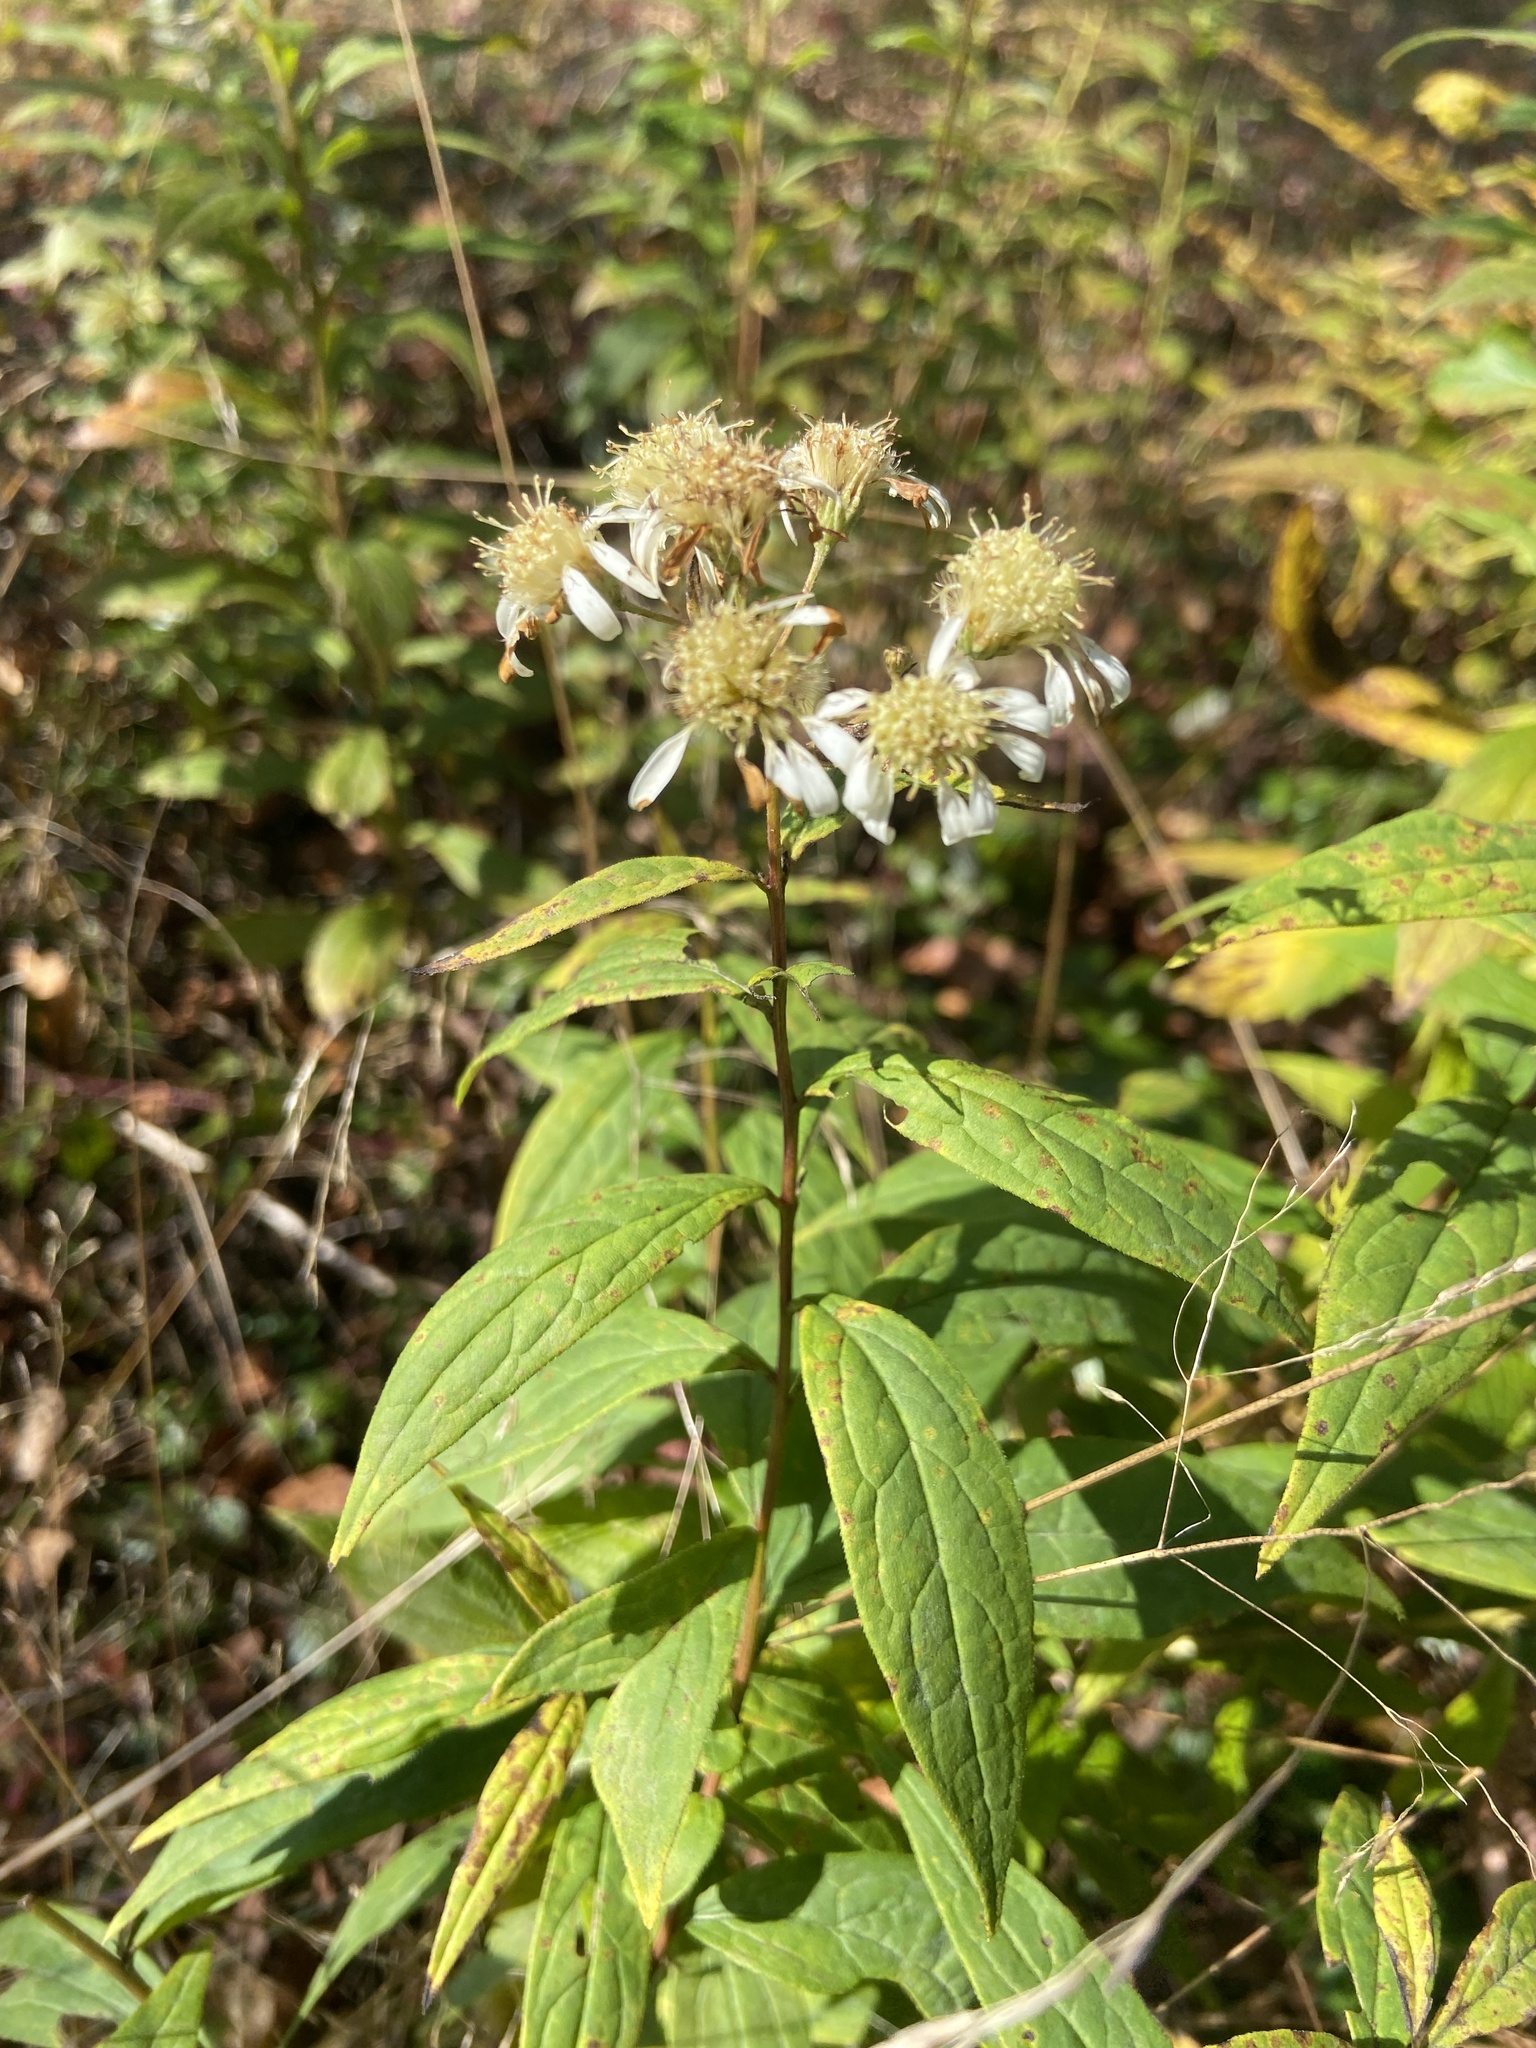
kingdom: Plantae
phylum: Tracheophyta
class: Magnoliopsida
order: Asterales
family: Asteraceae
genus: Doellingeria
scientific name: Doellingeria umbellata
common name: Flat-top white aster
